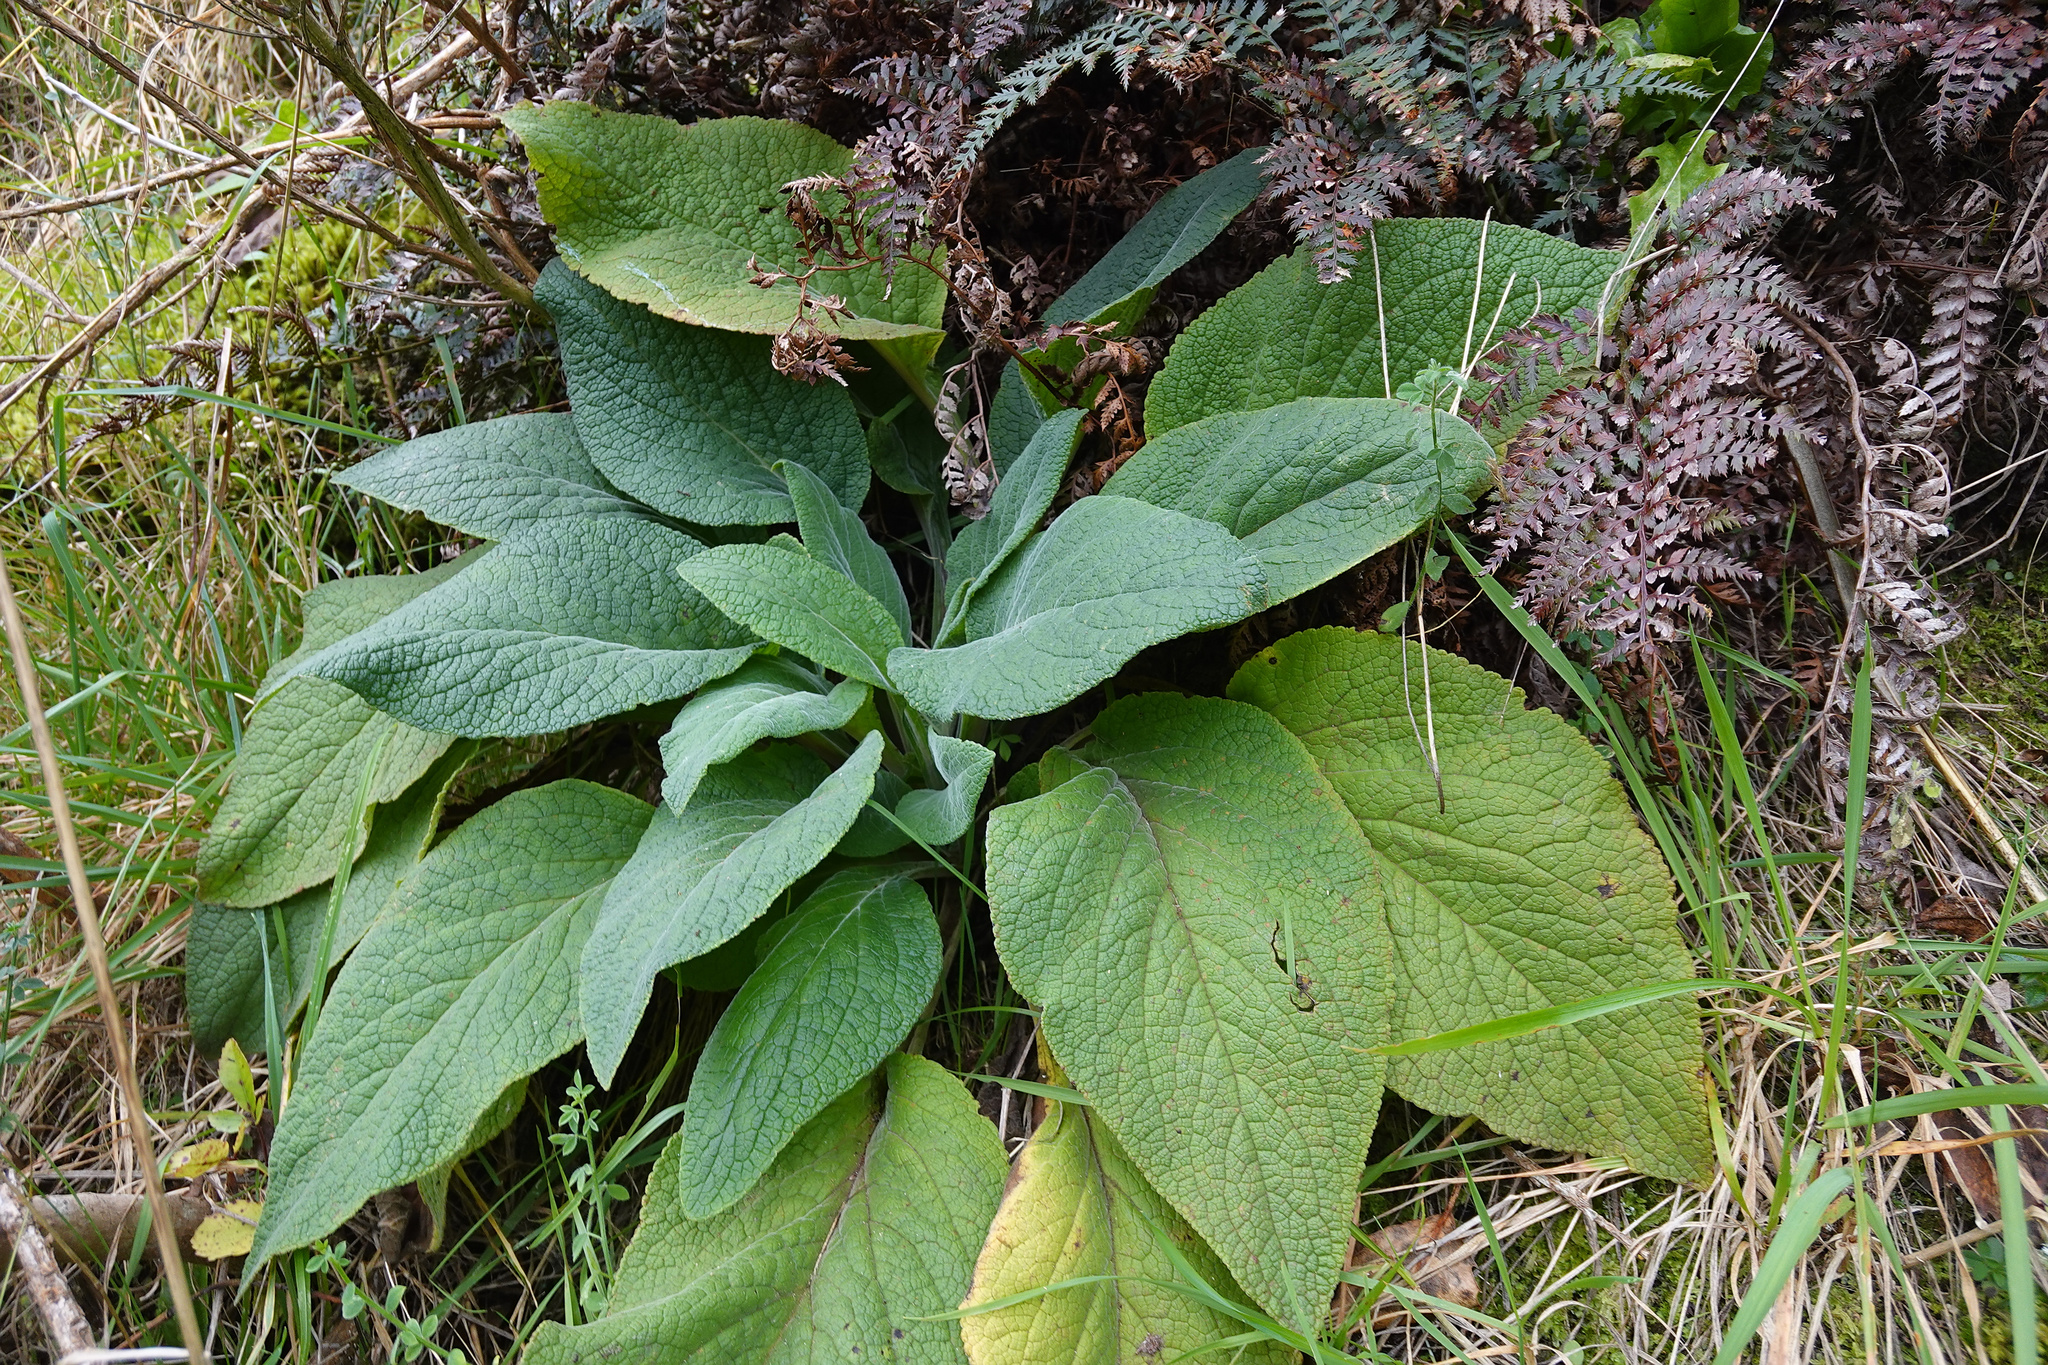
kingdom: Plantae
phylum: Tracheophyta
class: Magnoliopsida
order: Lamiales
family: Plantaginaceae
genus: Digitalis
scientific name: Digitalis purpurea
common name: Foxglove
